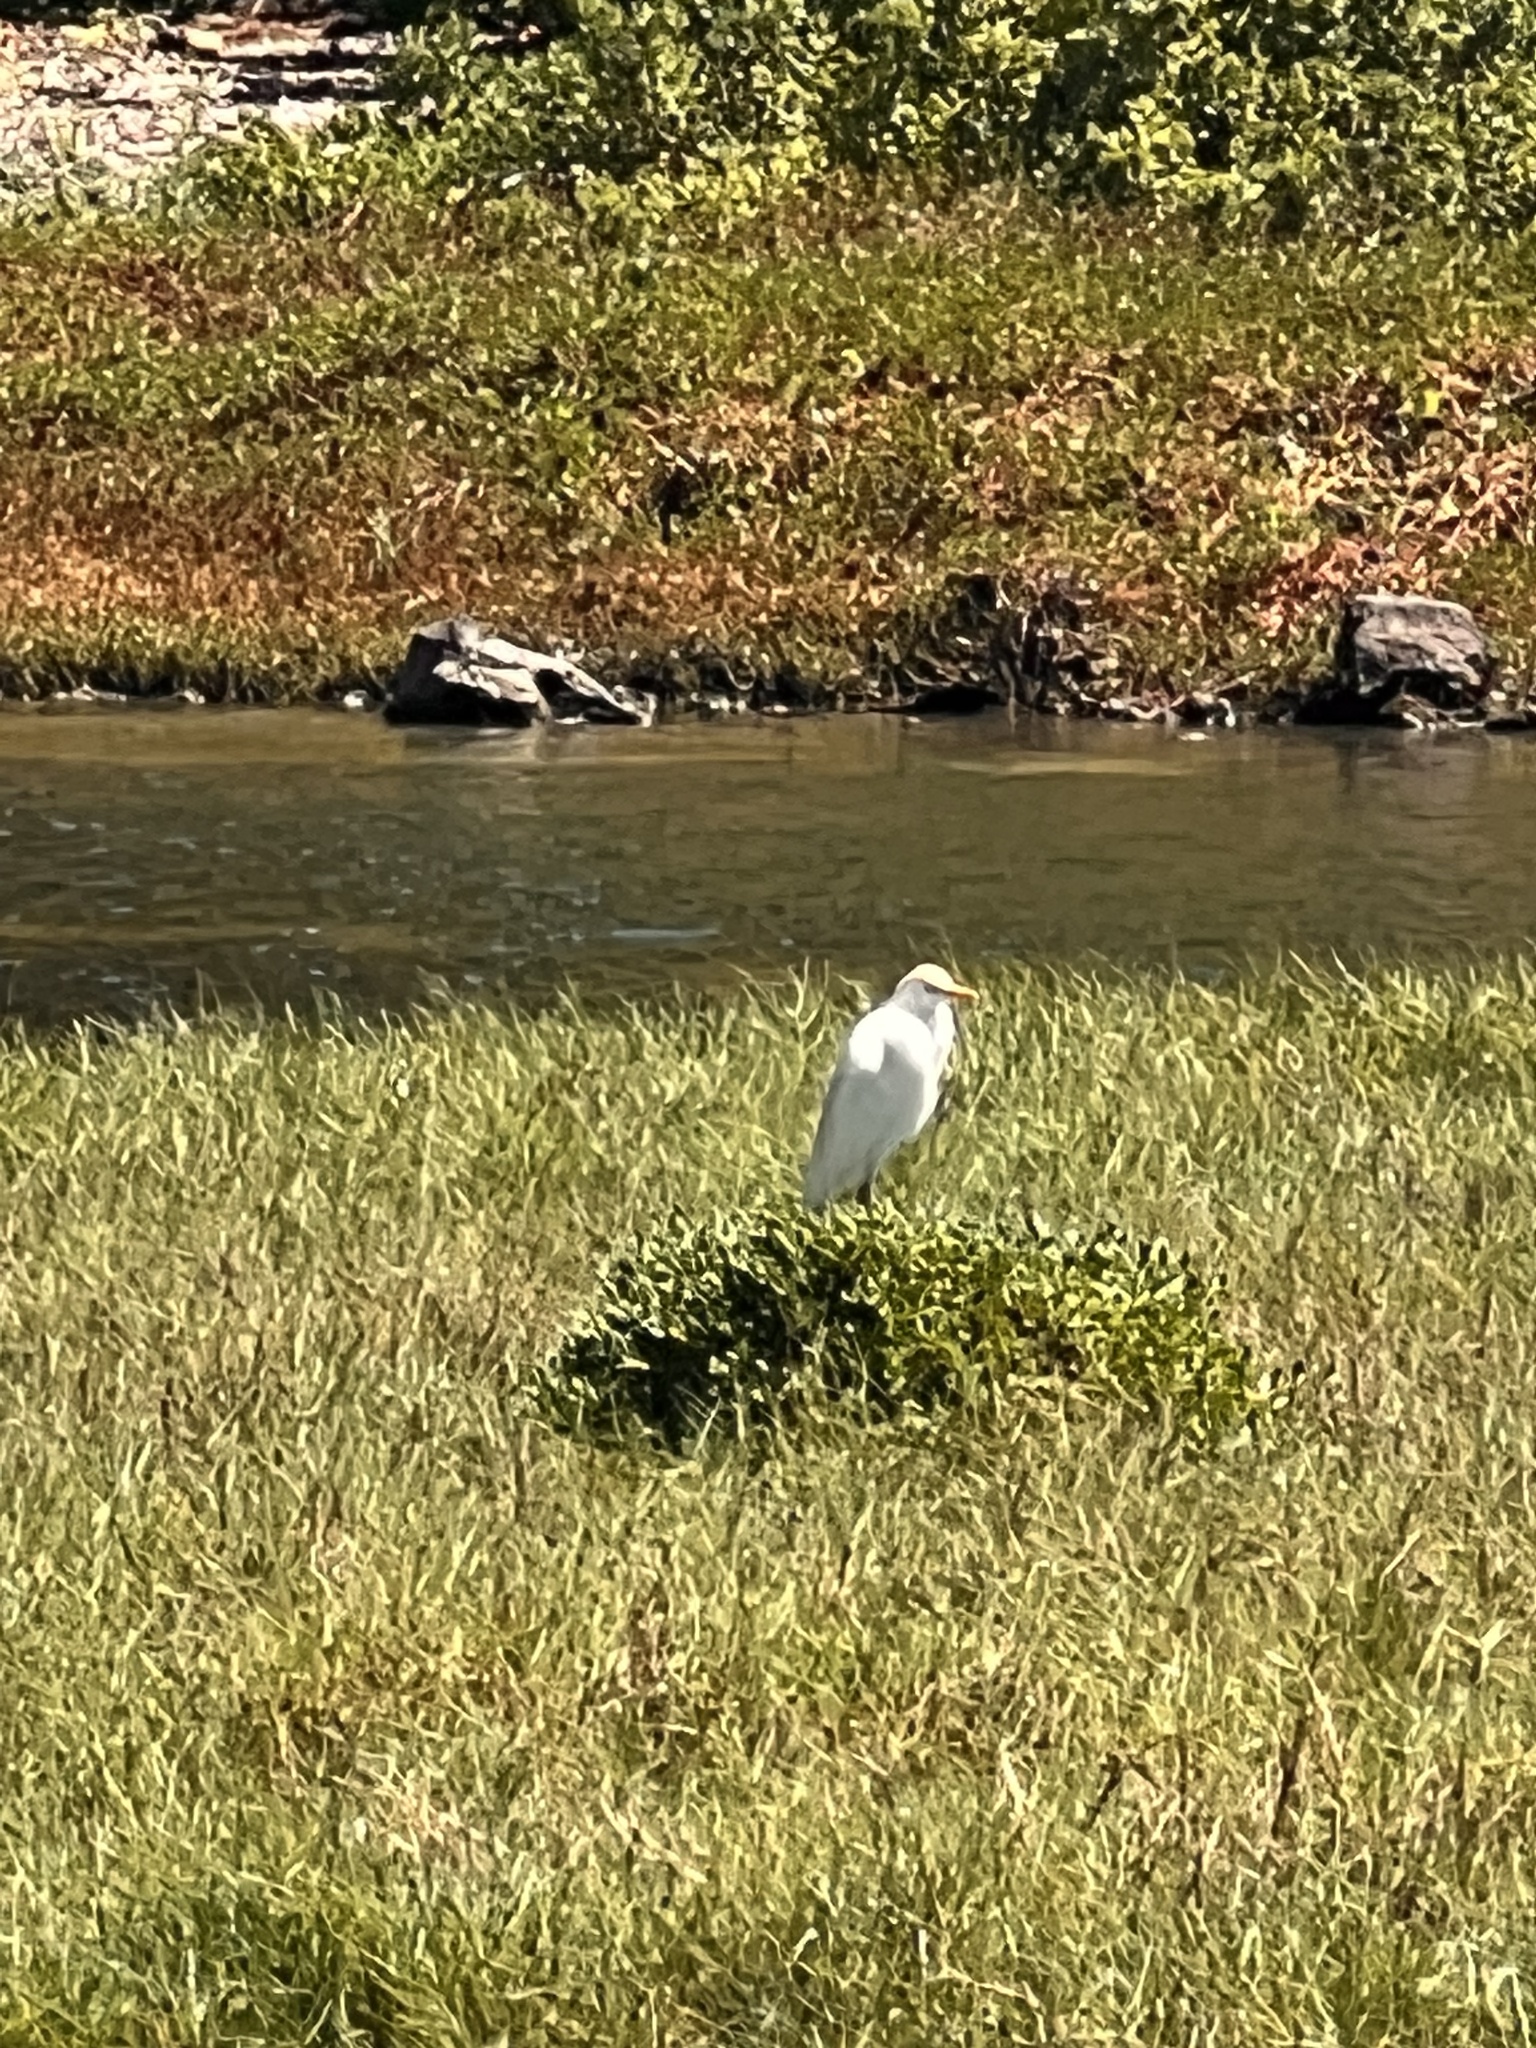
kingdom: Animalia
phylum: Chordata
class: Aves
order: Pelecaniformes
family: Ardeidae
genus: Bubulcus
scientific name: Bubulcus ibis
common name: Cattle egret
